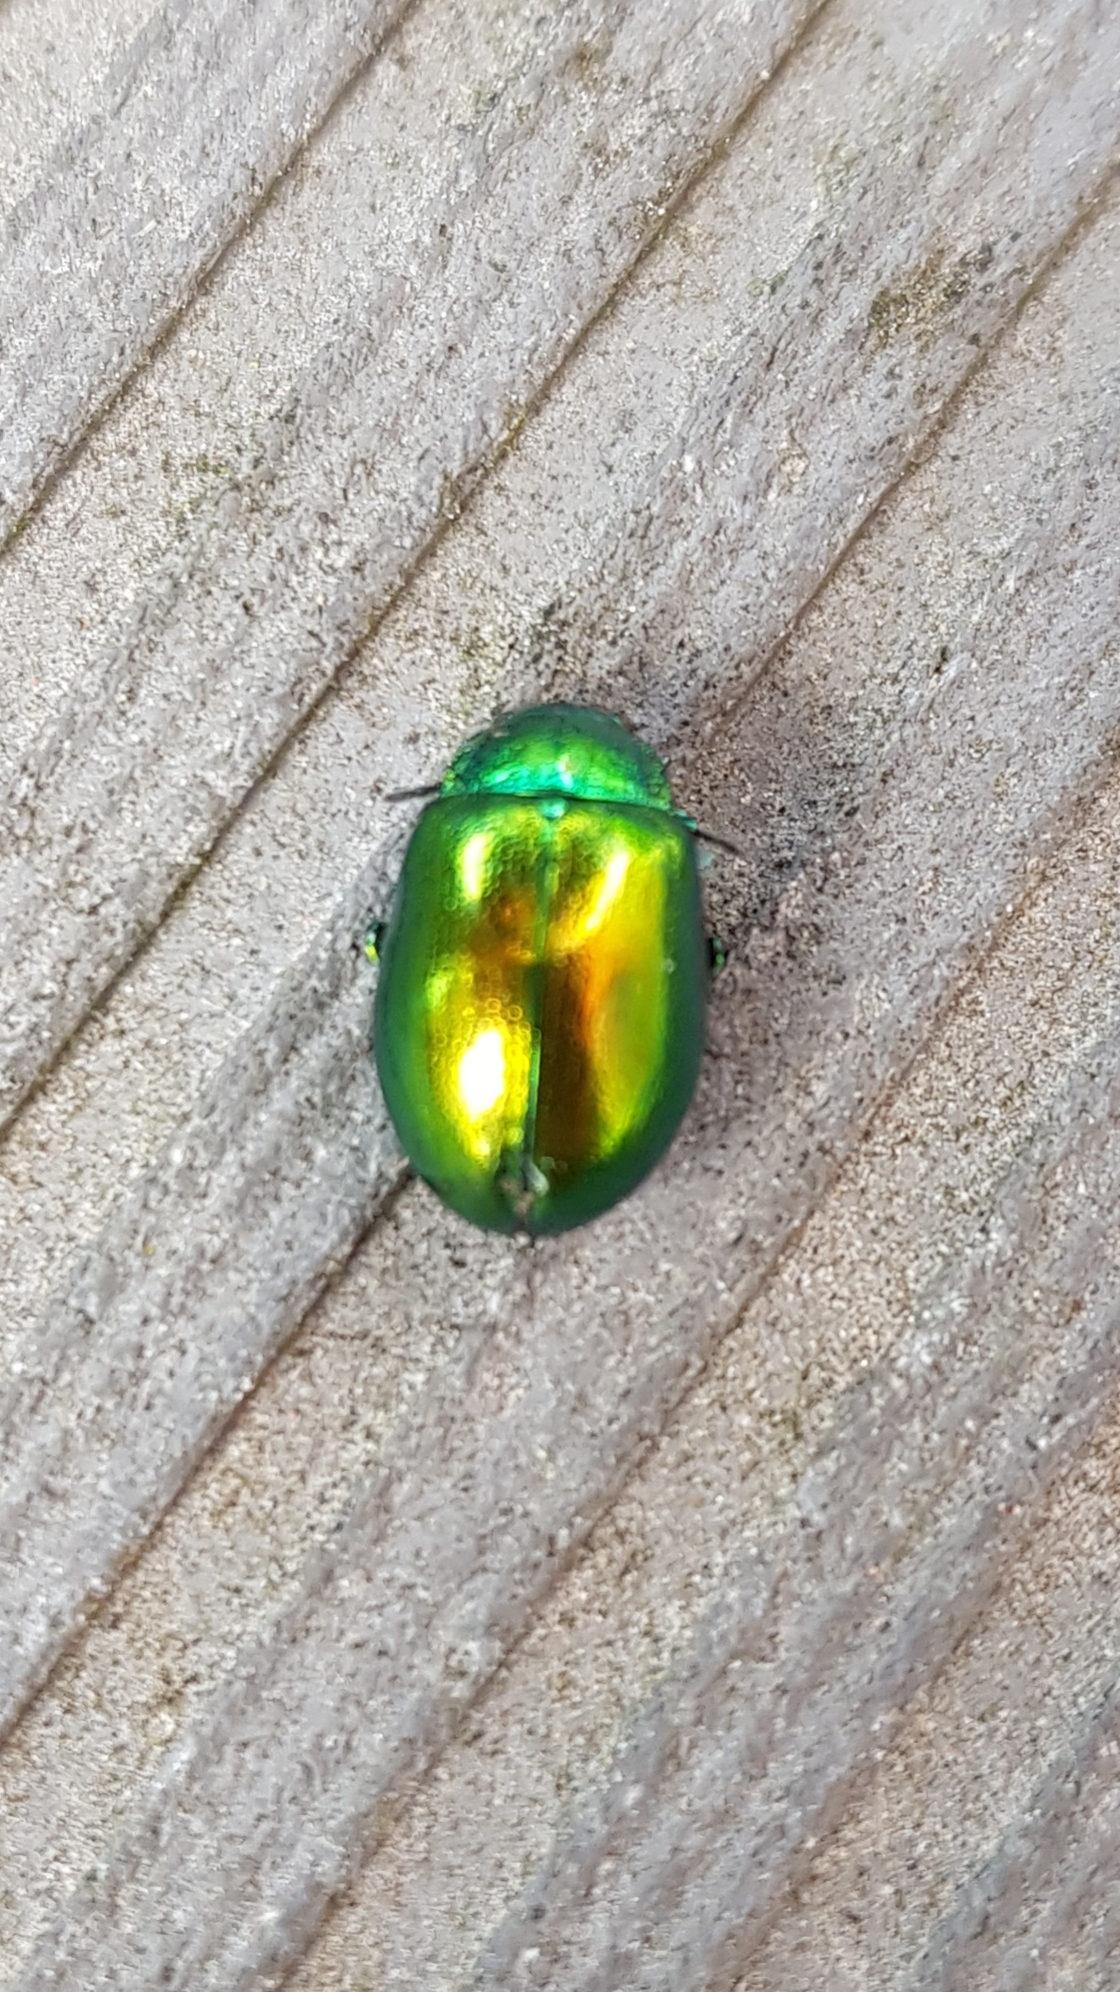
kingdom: Animalia
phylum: Arthropoda
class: Insecta
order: Coleoptera
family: Chrysomelidae
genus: Chrysolina
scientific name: Chrysolina herbacea
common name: Mint leaf beatle
